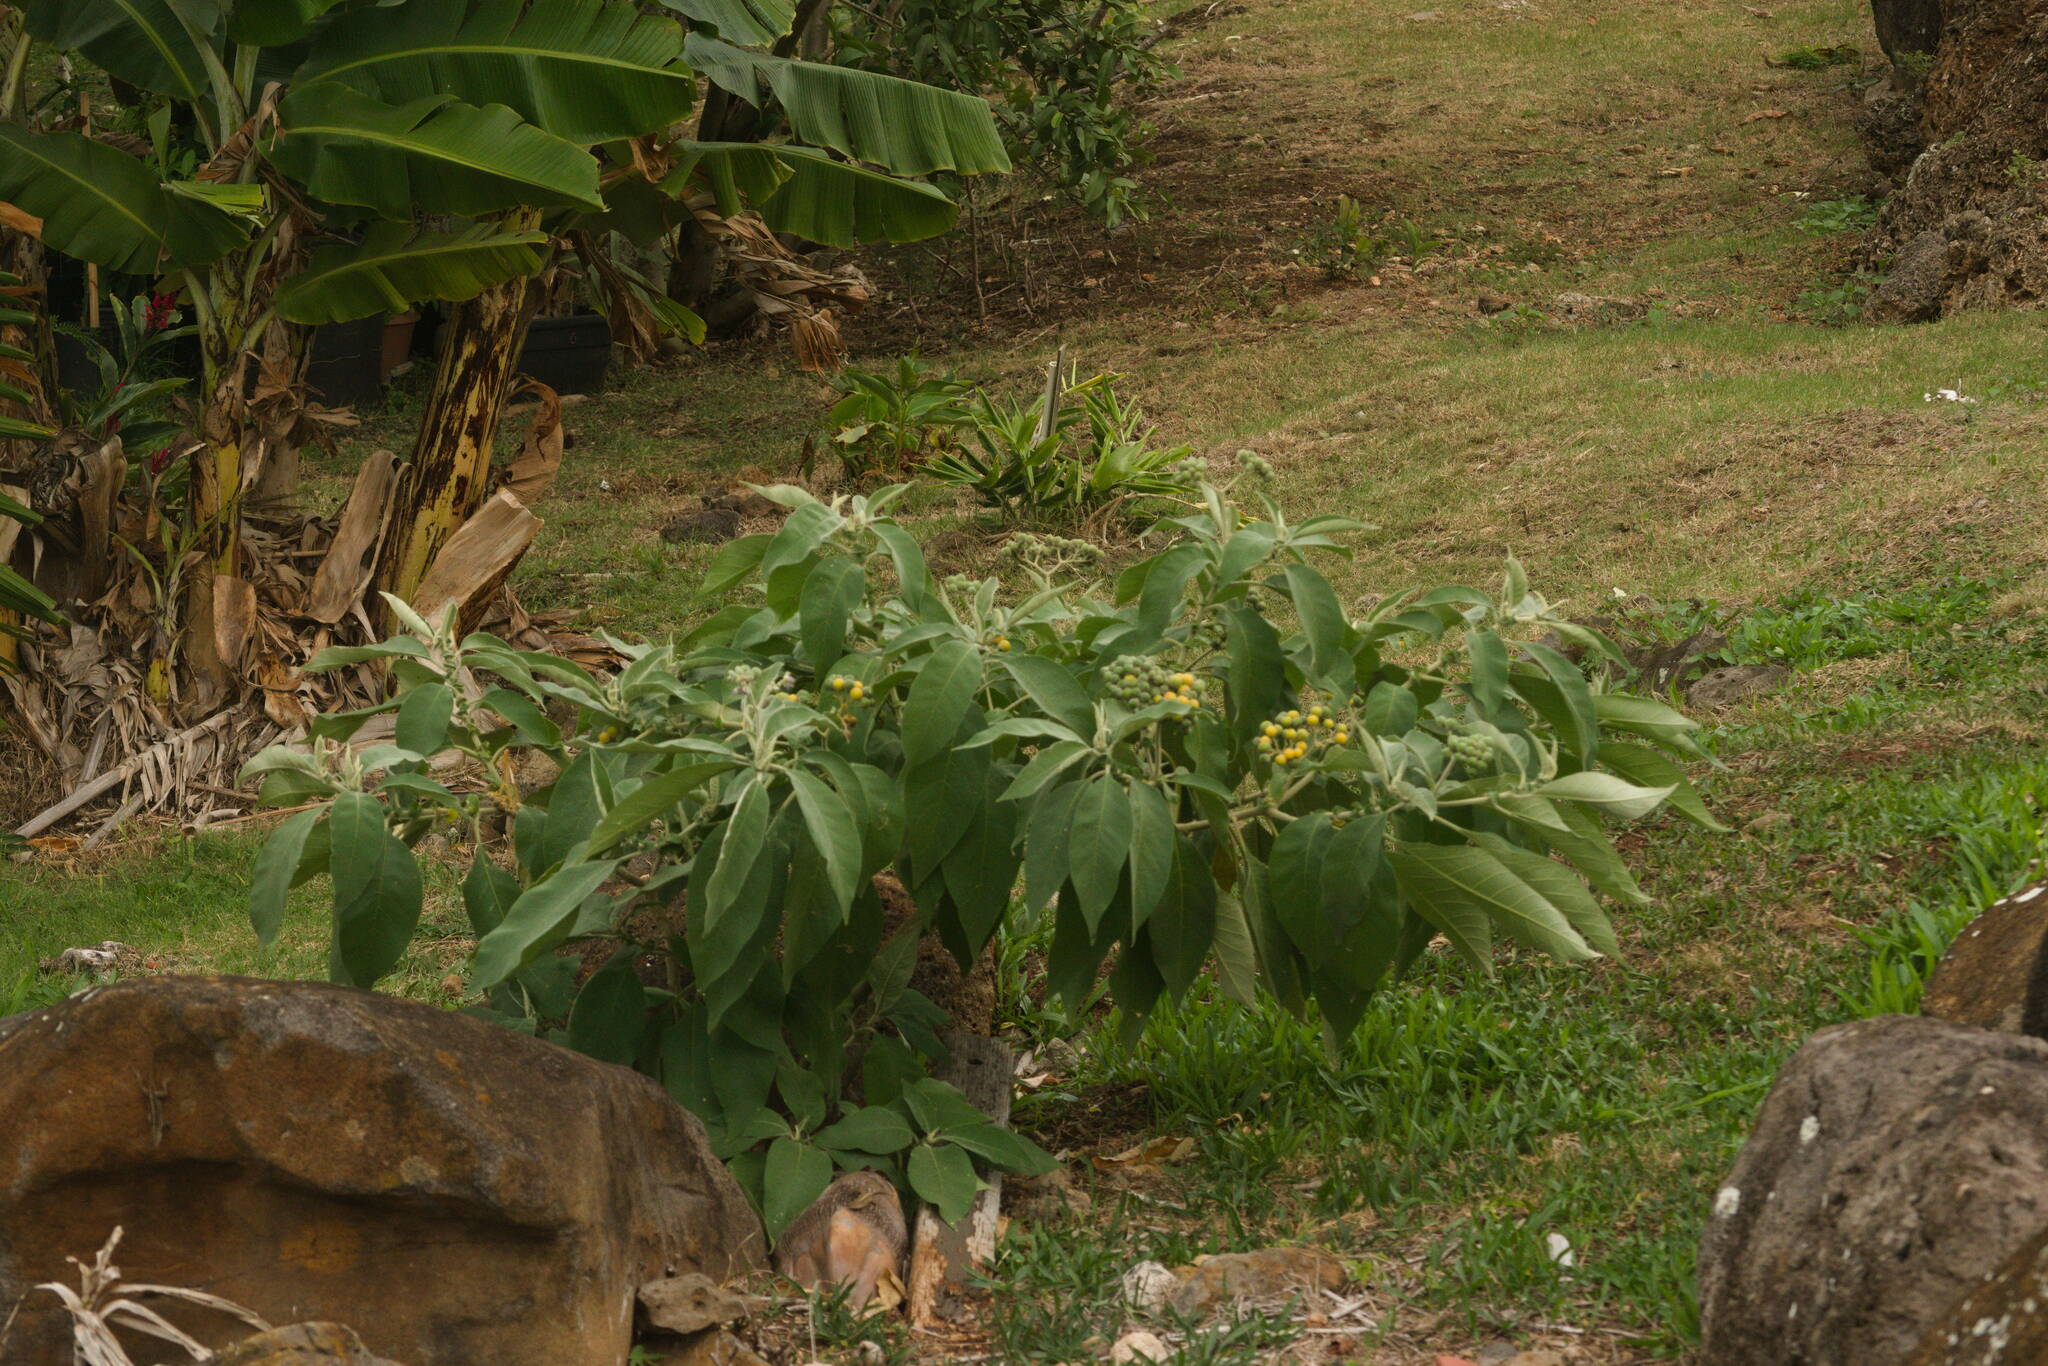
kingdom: Plantae
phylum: Tracheophyta
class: Magnoliopsida
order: Solanales
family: Solanaceae
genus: Solanum
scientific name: Solanum mauritianum
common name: Earleaf nightshade
